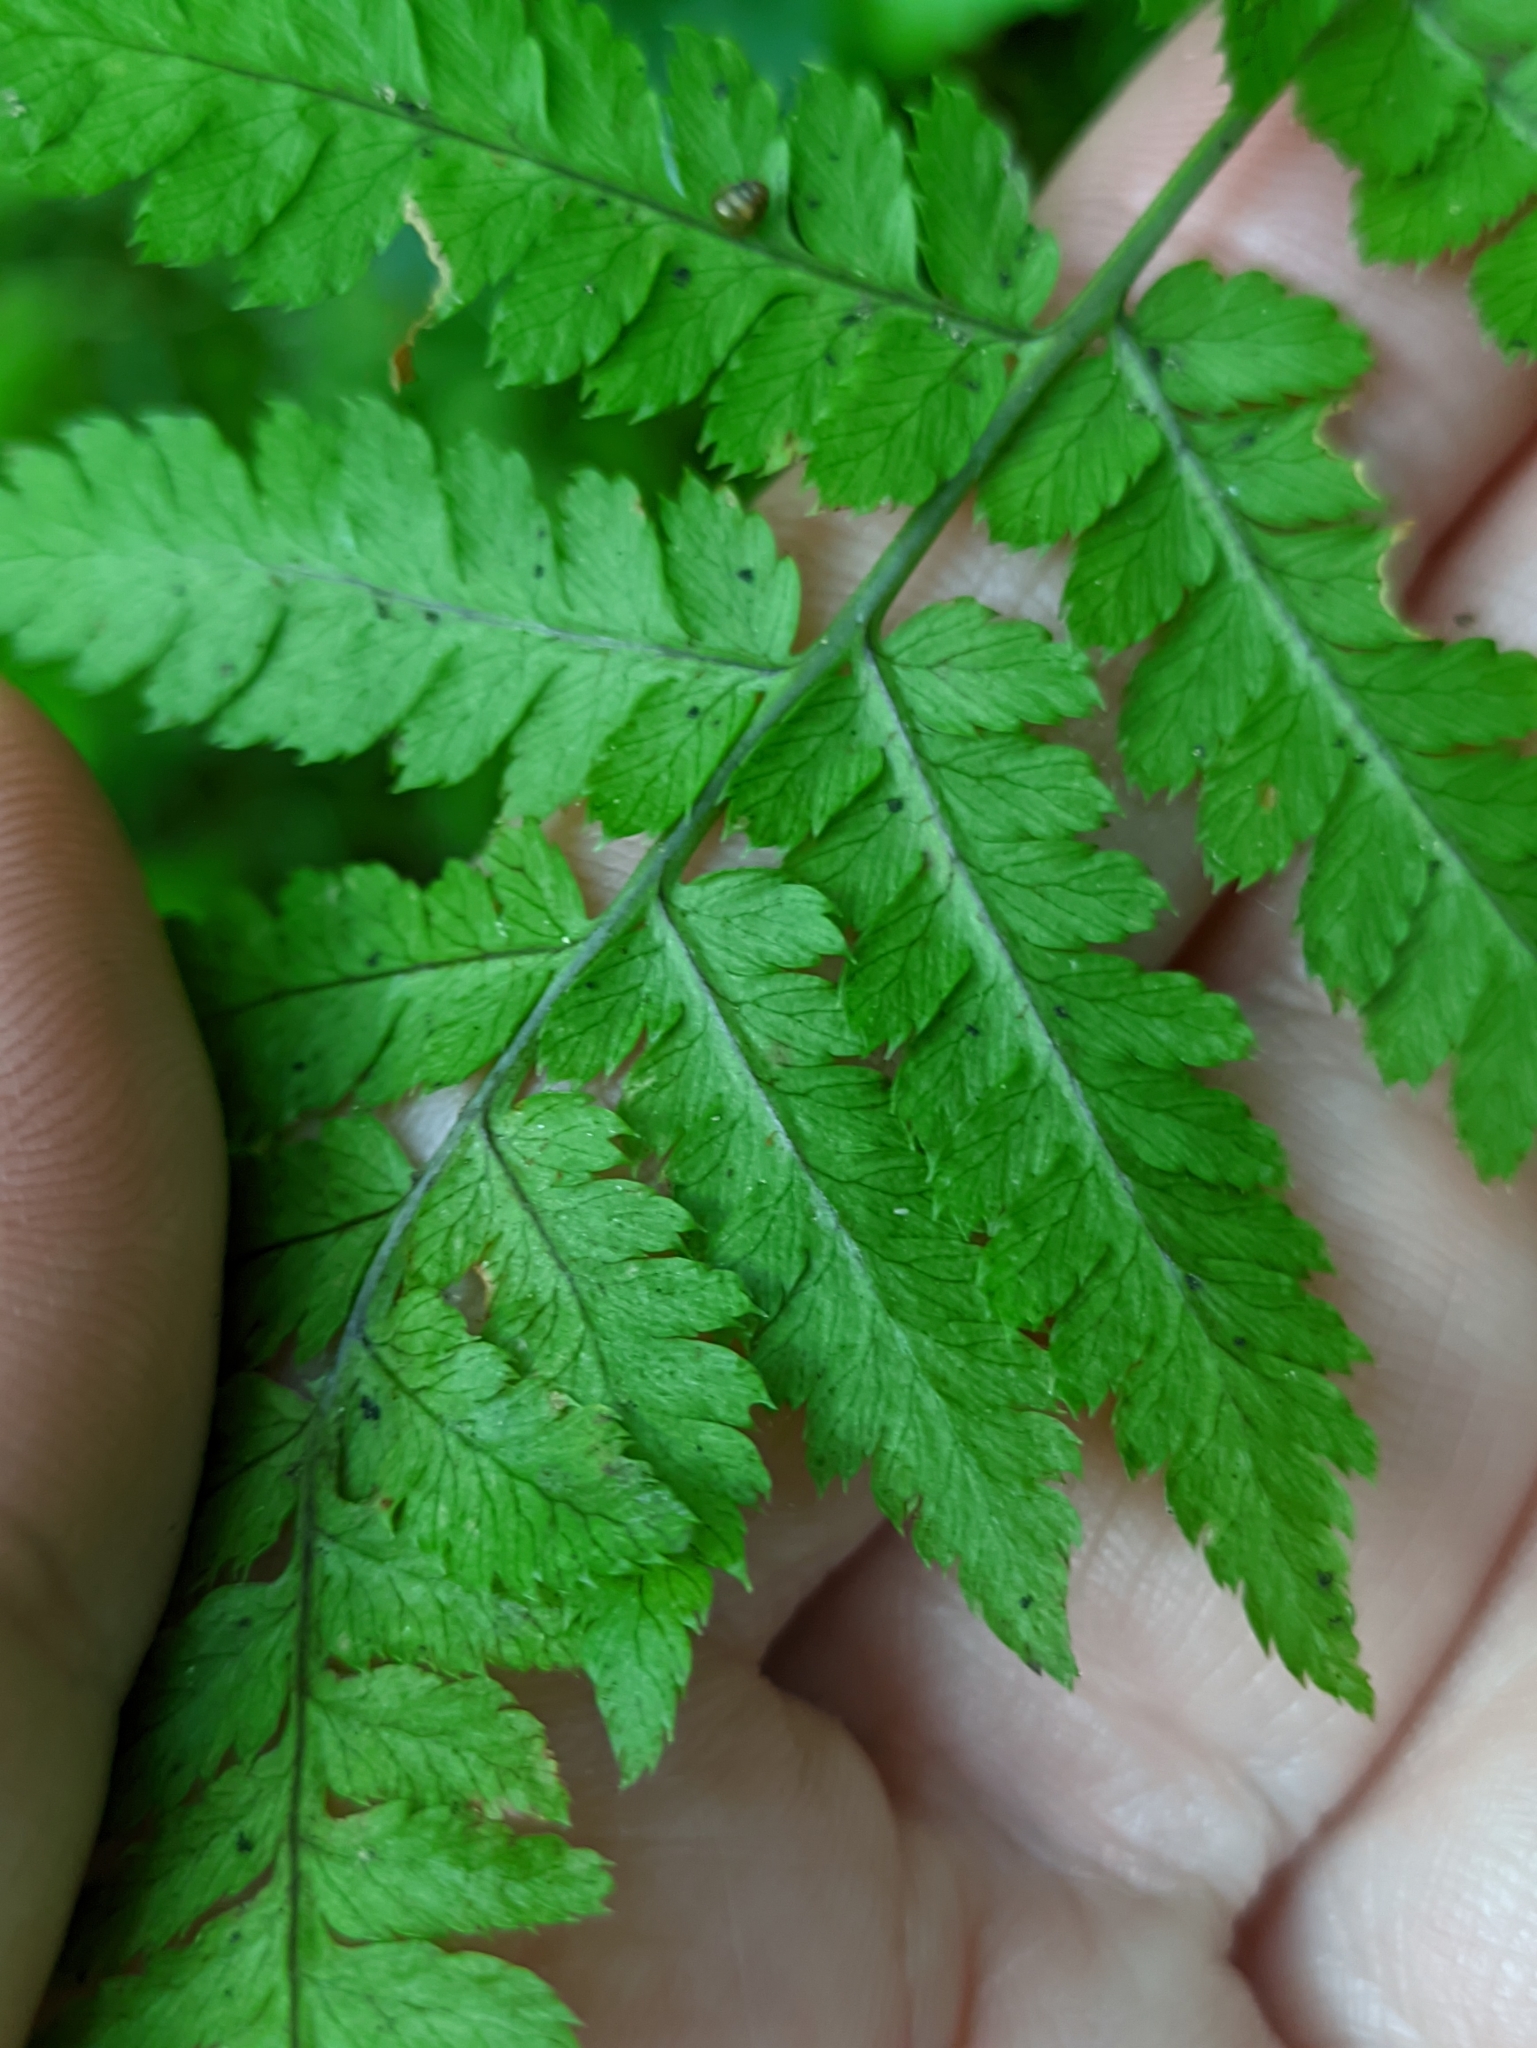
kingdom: Plantae
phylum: Tracheophyta
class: Polypodiopsida
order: Polypodiales
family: Dryopteridaceae
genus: Dryopteris
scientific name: Dryopteris carthusiana
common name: Narrow buckler-fern
